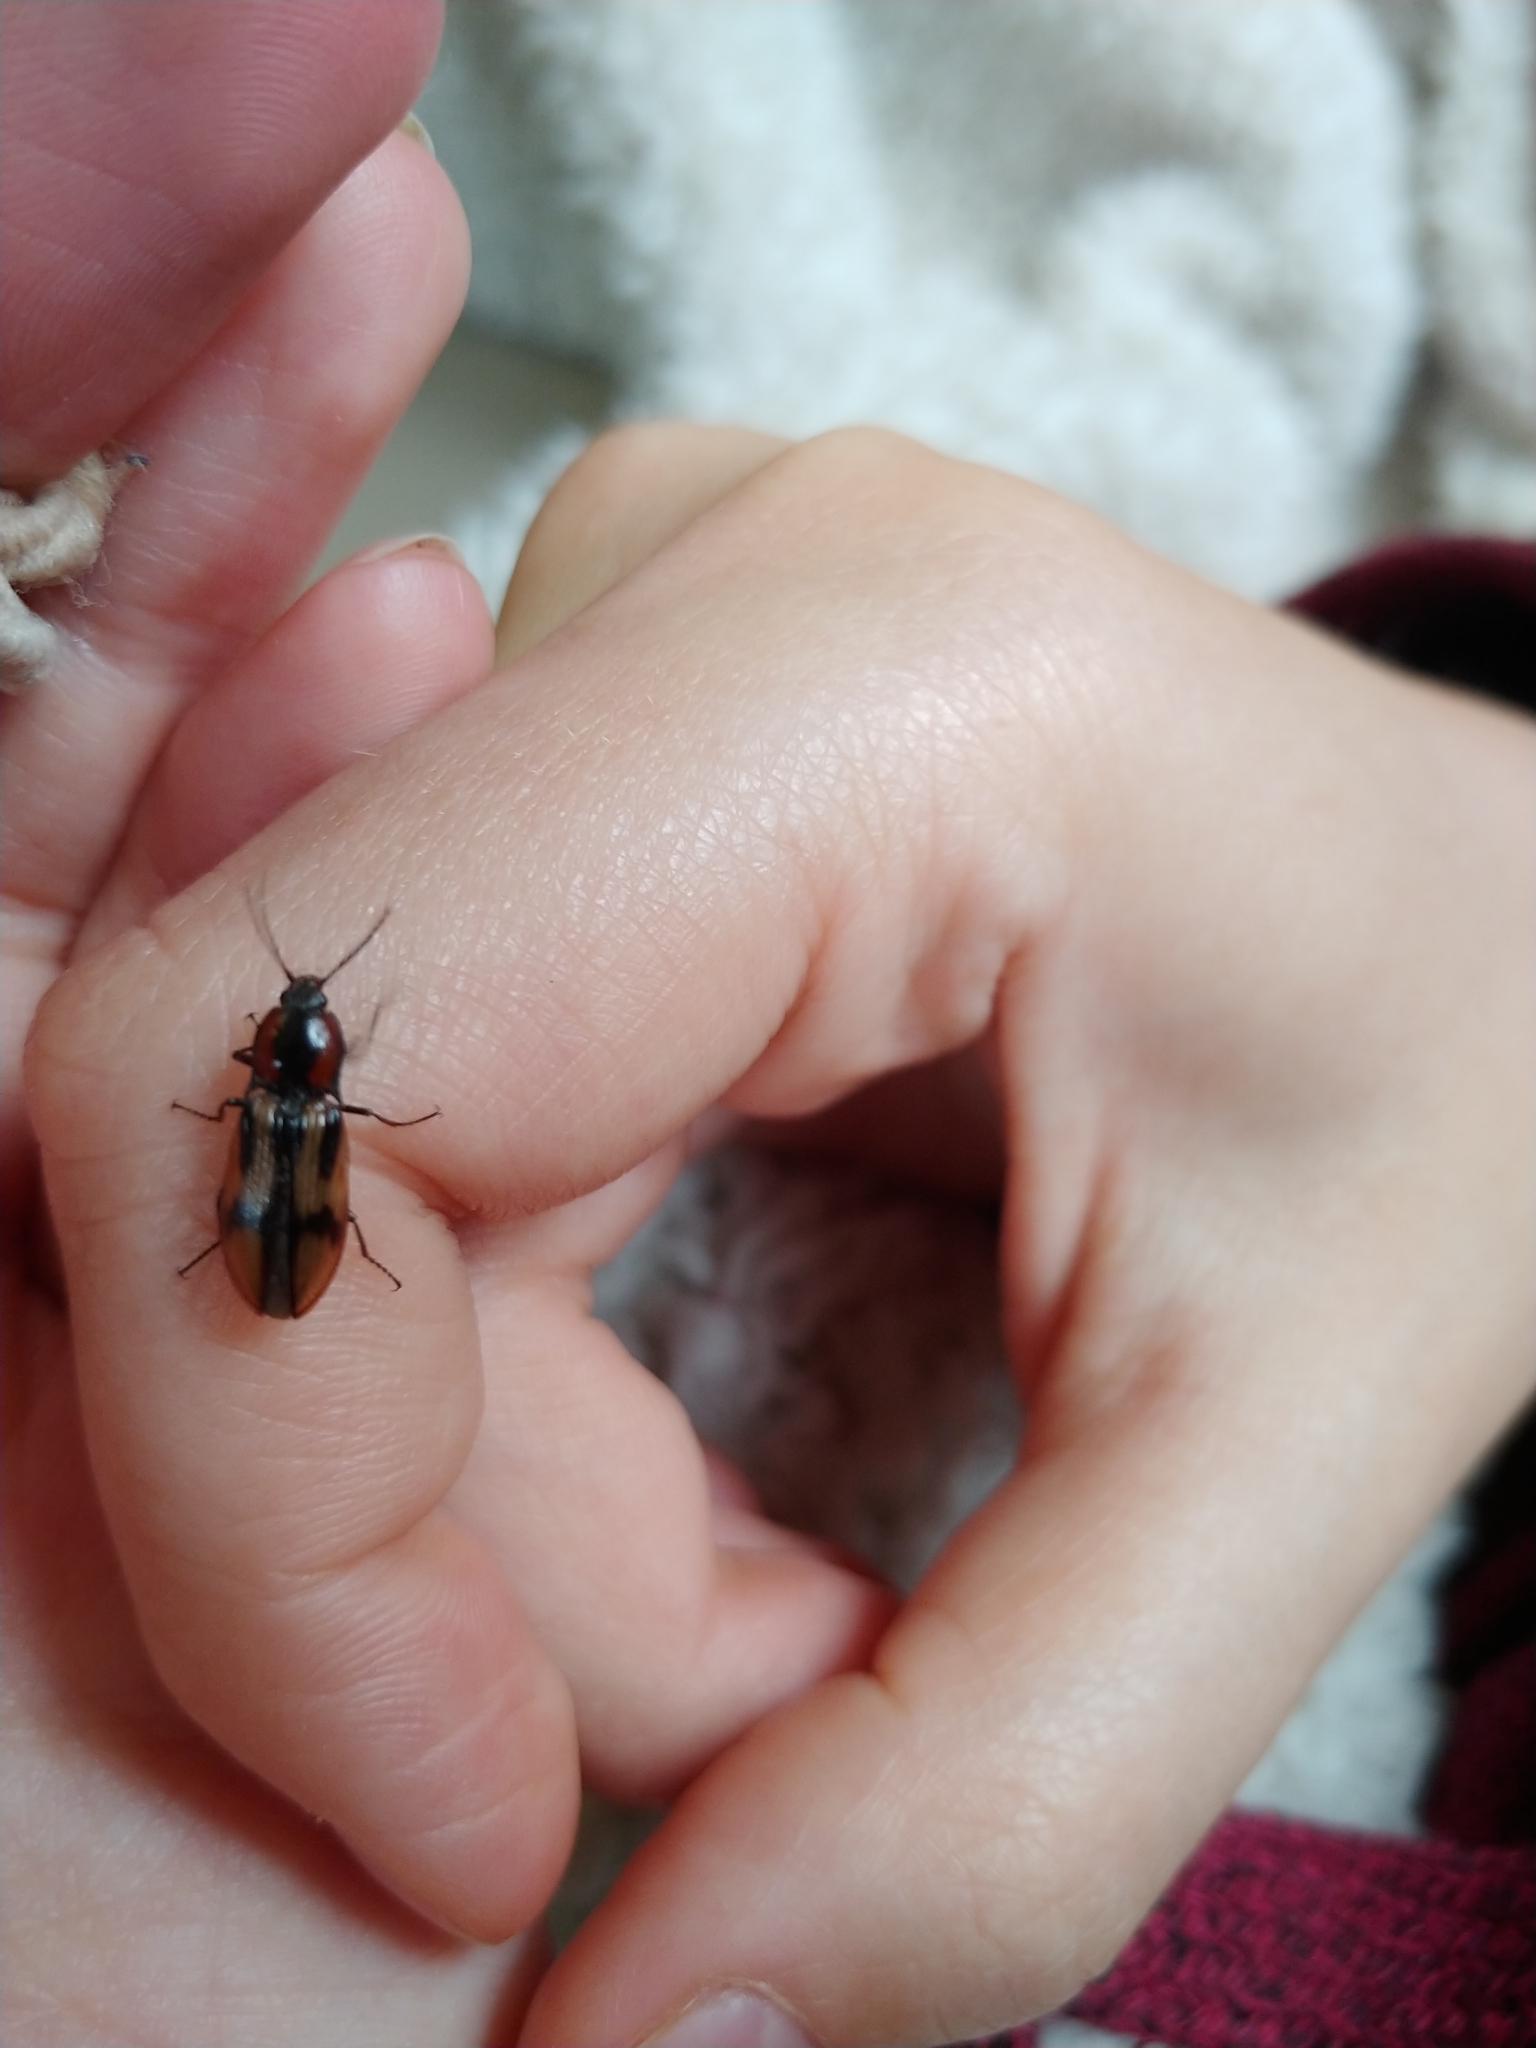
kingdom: Animalia
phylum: Arthropoda
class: Insecta
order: Coleoptera
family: Elateridae
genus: Selatosomus
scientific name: Selatosomus pulcher
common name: Noble click beetle
